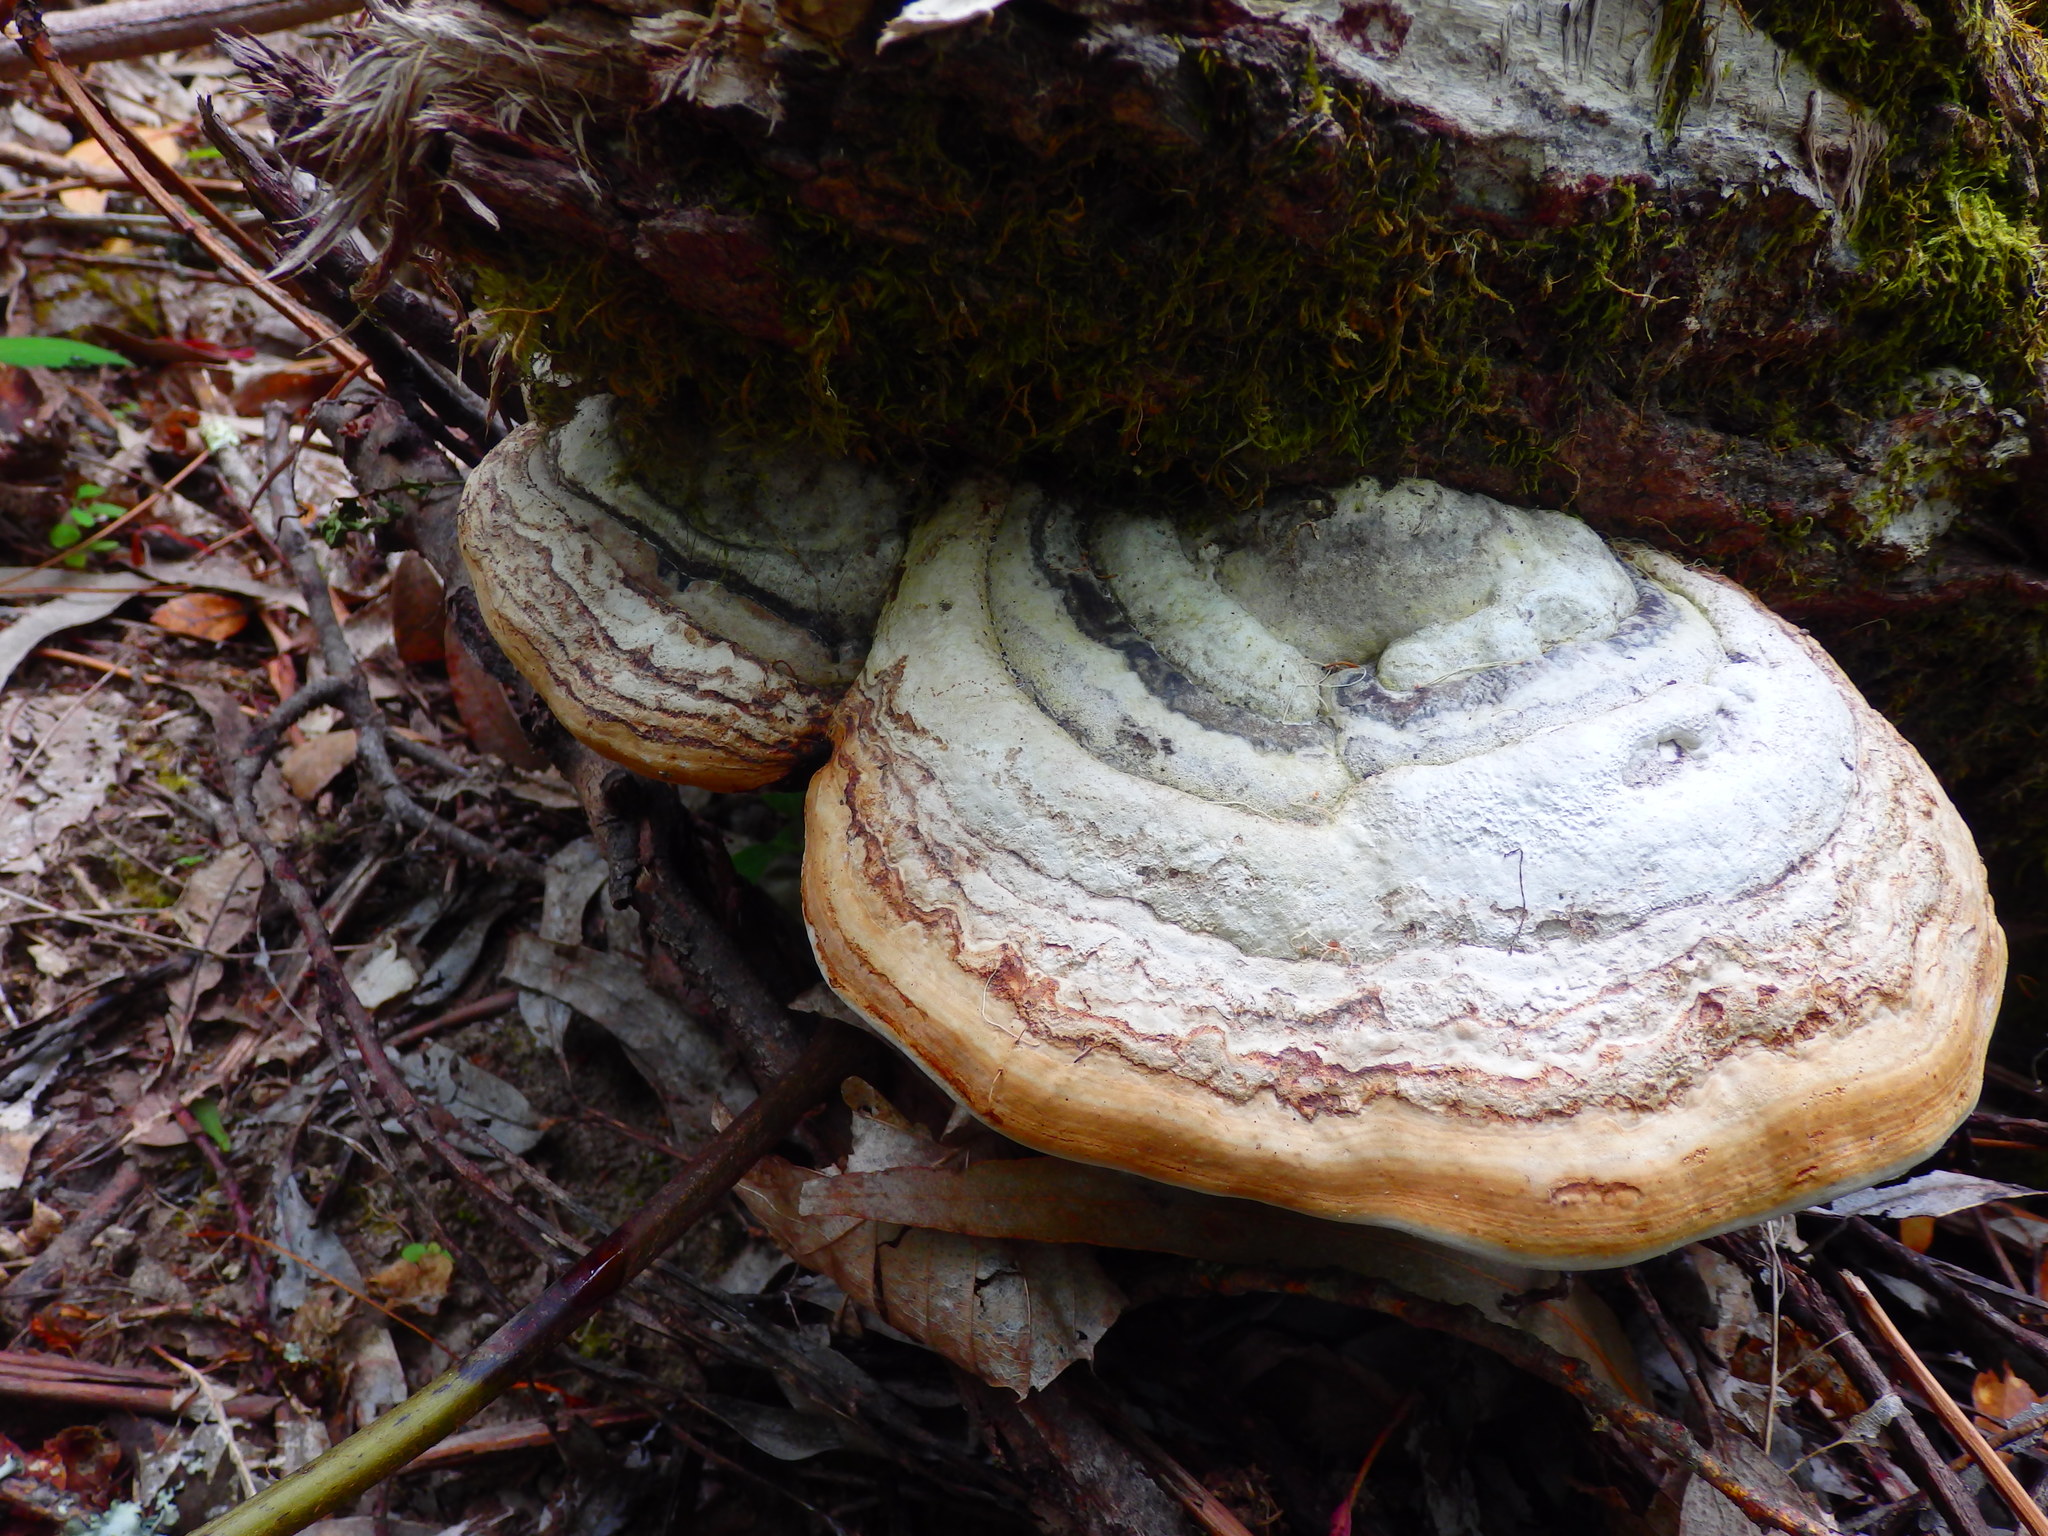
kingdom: Fungi
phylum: Basidiomycota
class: Agaricomycetes
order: Polyporales
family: Polyporaceae
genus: Fomes
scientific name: Fomes fomentarius
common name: Hoof fungus
